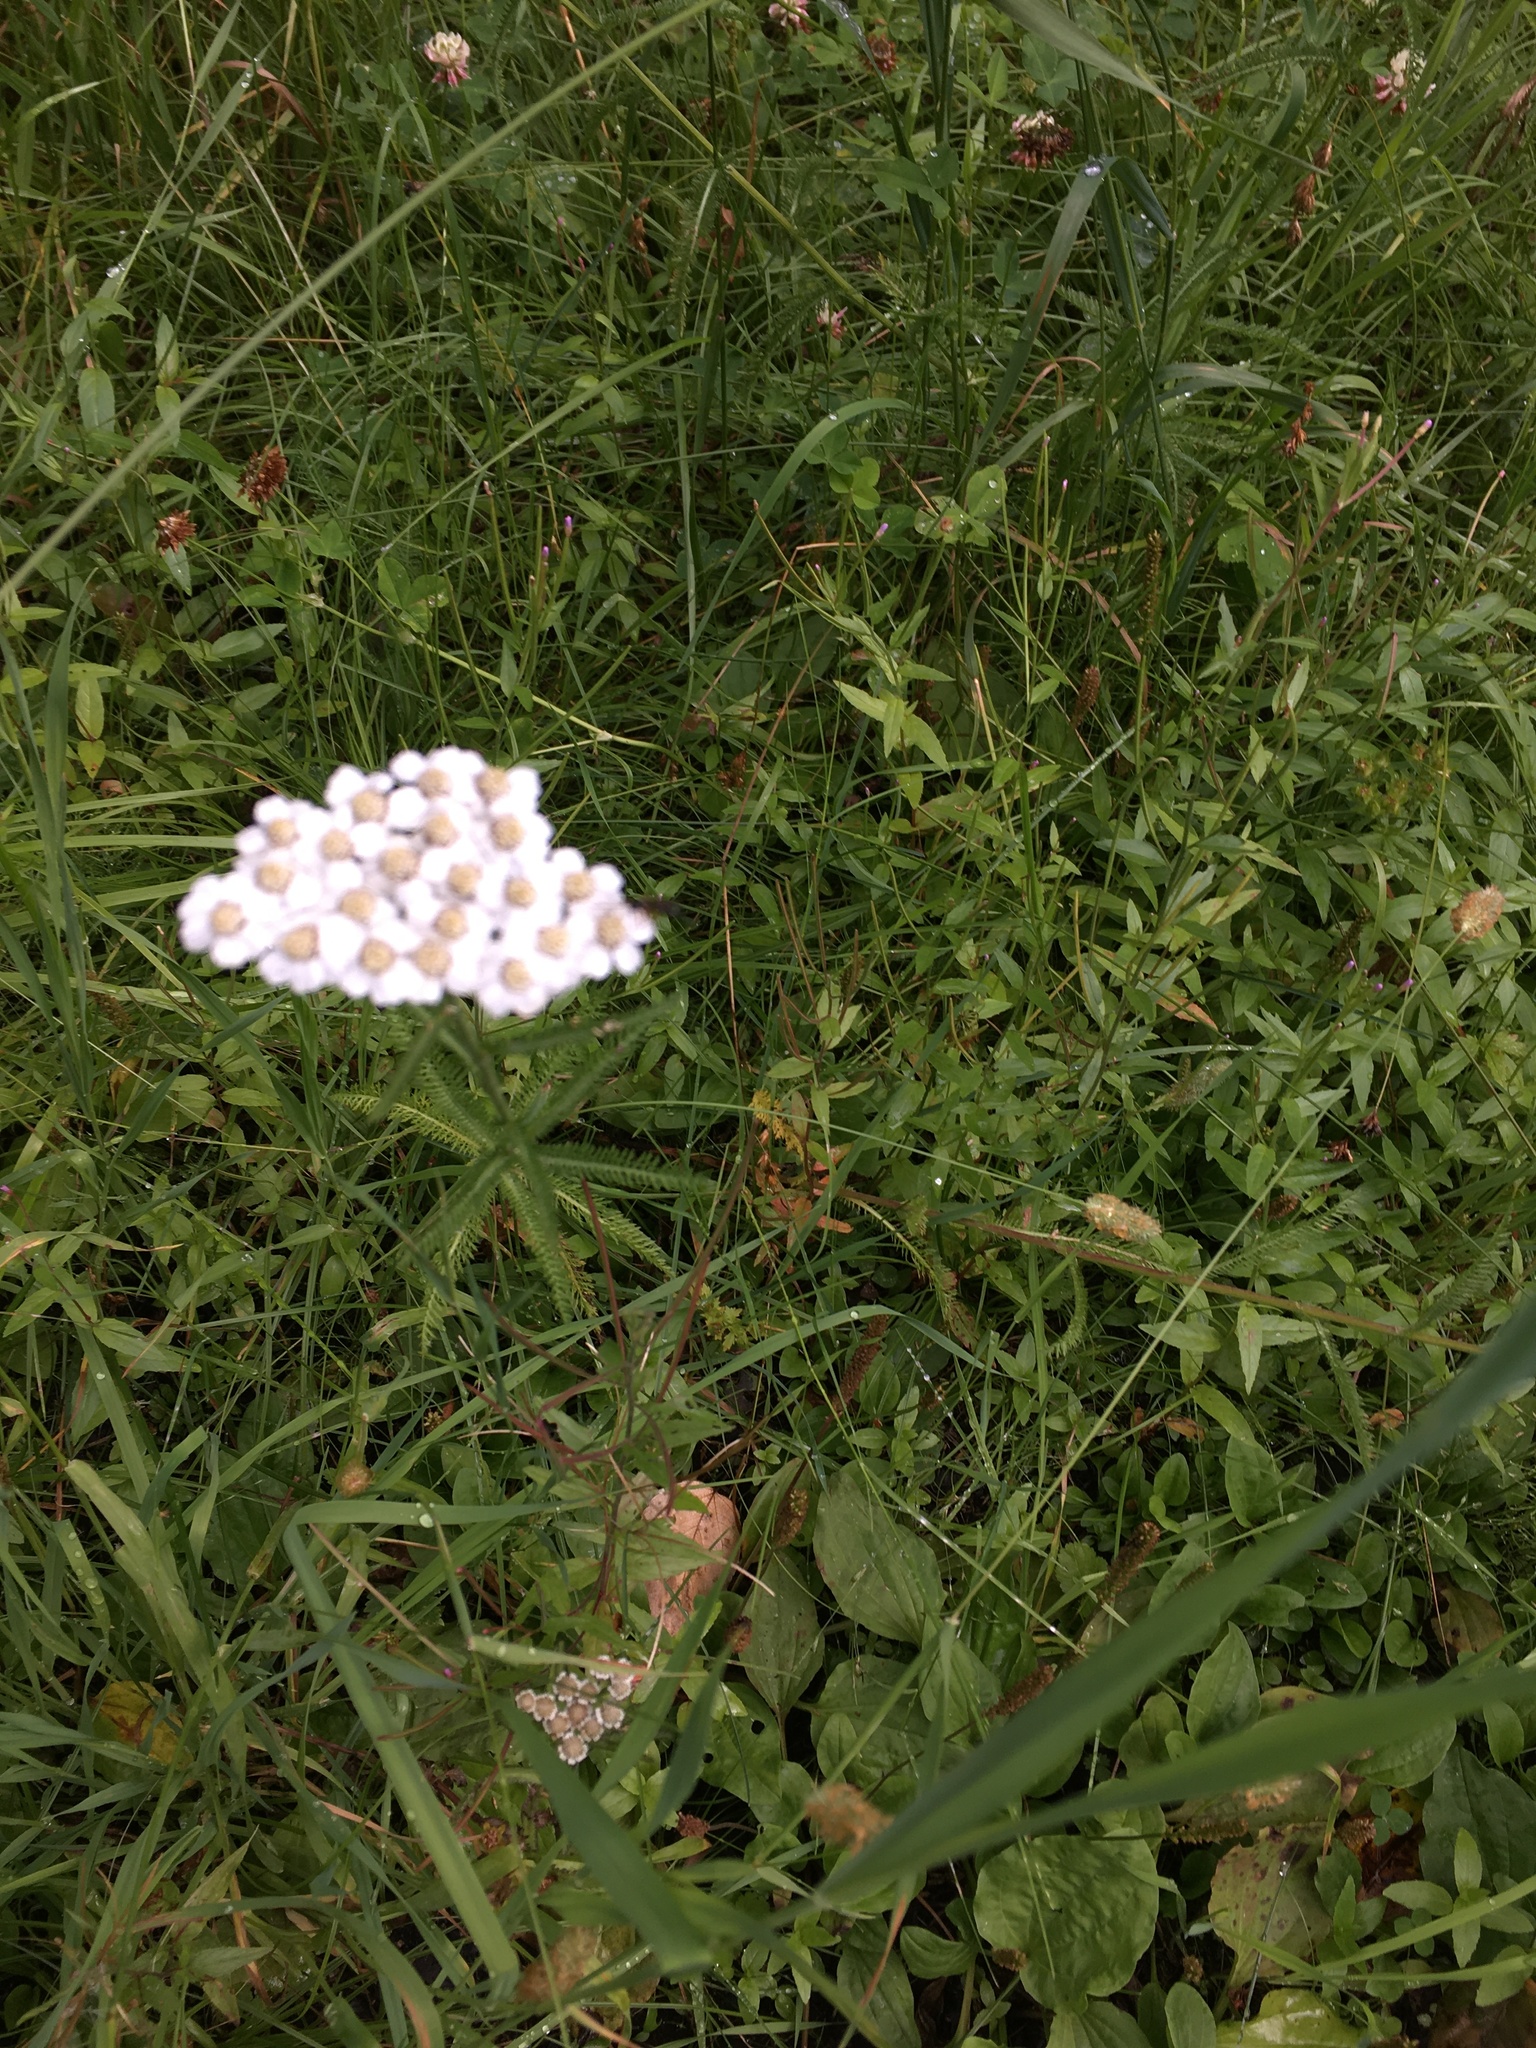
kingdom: Plantae
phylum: Tracheophyta
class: Magnoliopsida
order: Asterales
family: Asteraceae
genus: Achillea
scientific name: Achillea millefolium
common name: Yarrow
